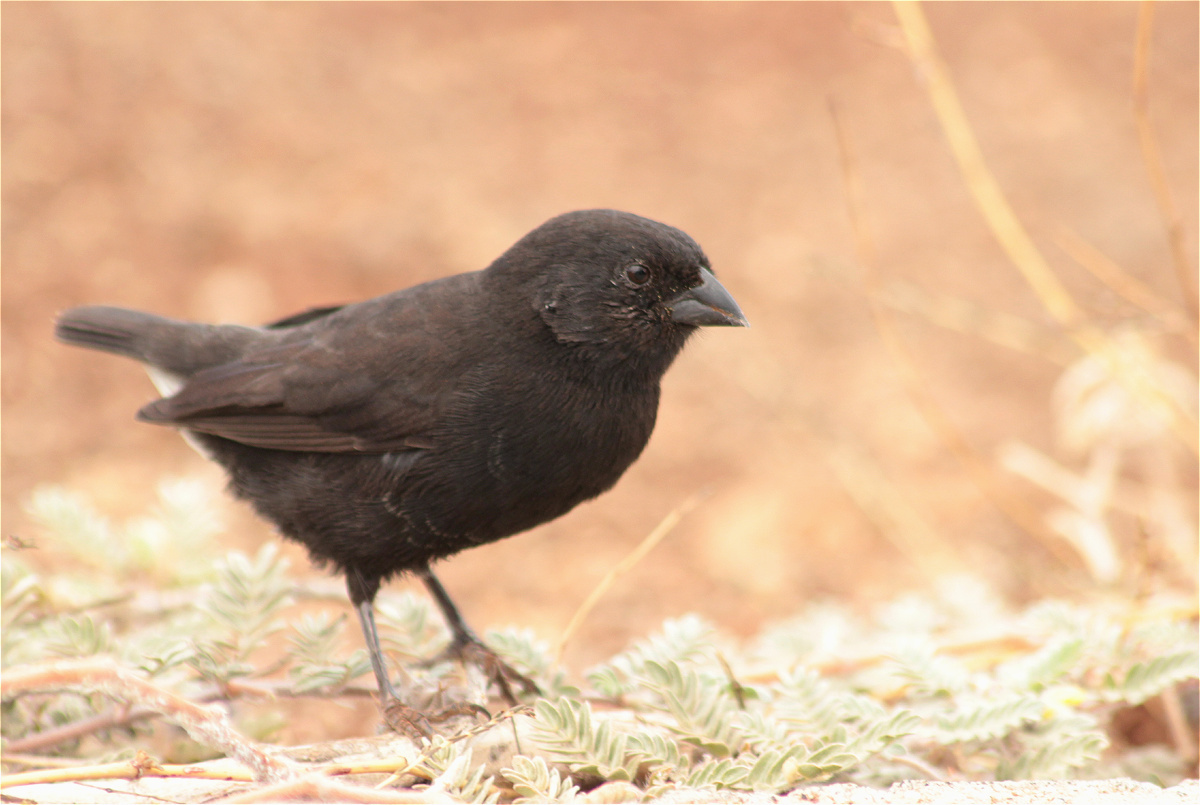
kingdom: Animalia
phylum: Chordata
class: Aves
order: Passeriformes
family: Thraupidae
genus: Geospiza
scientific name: Geospiza fuliginosa
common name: Small ground finch
